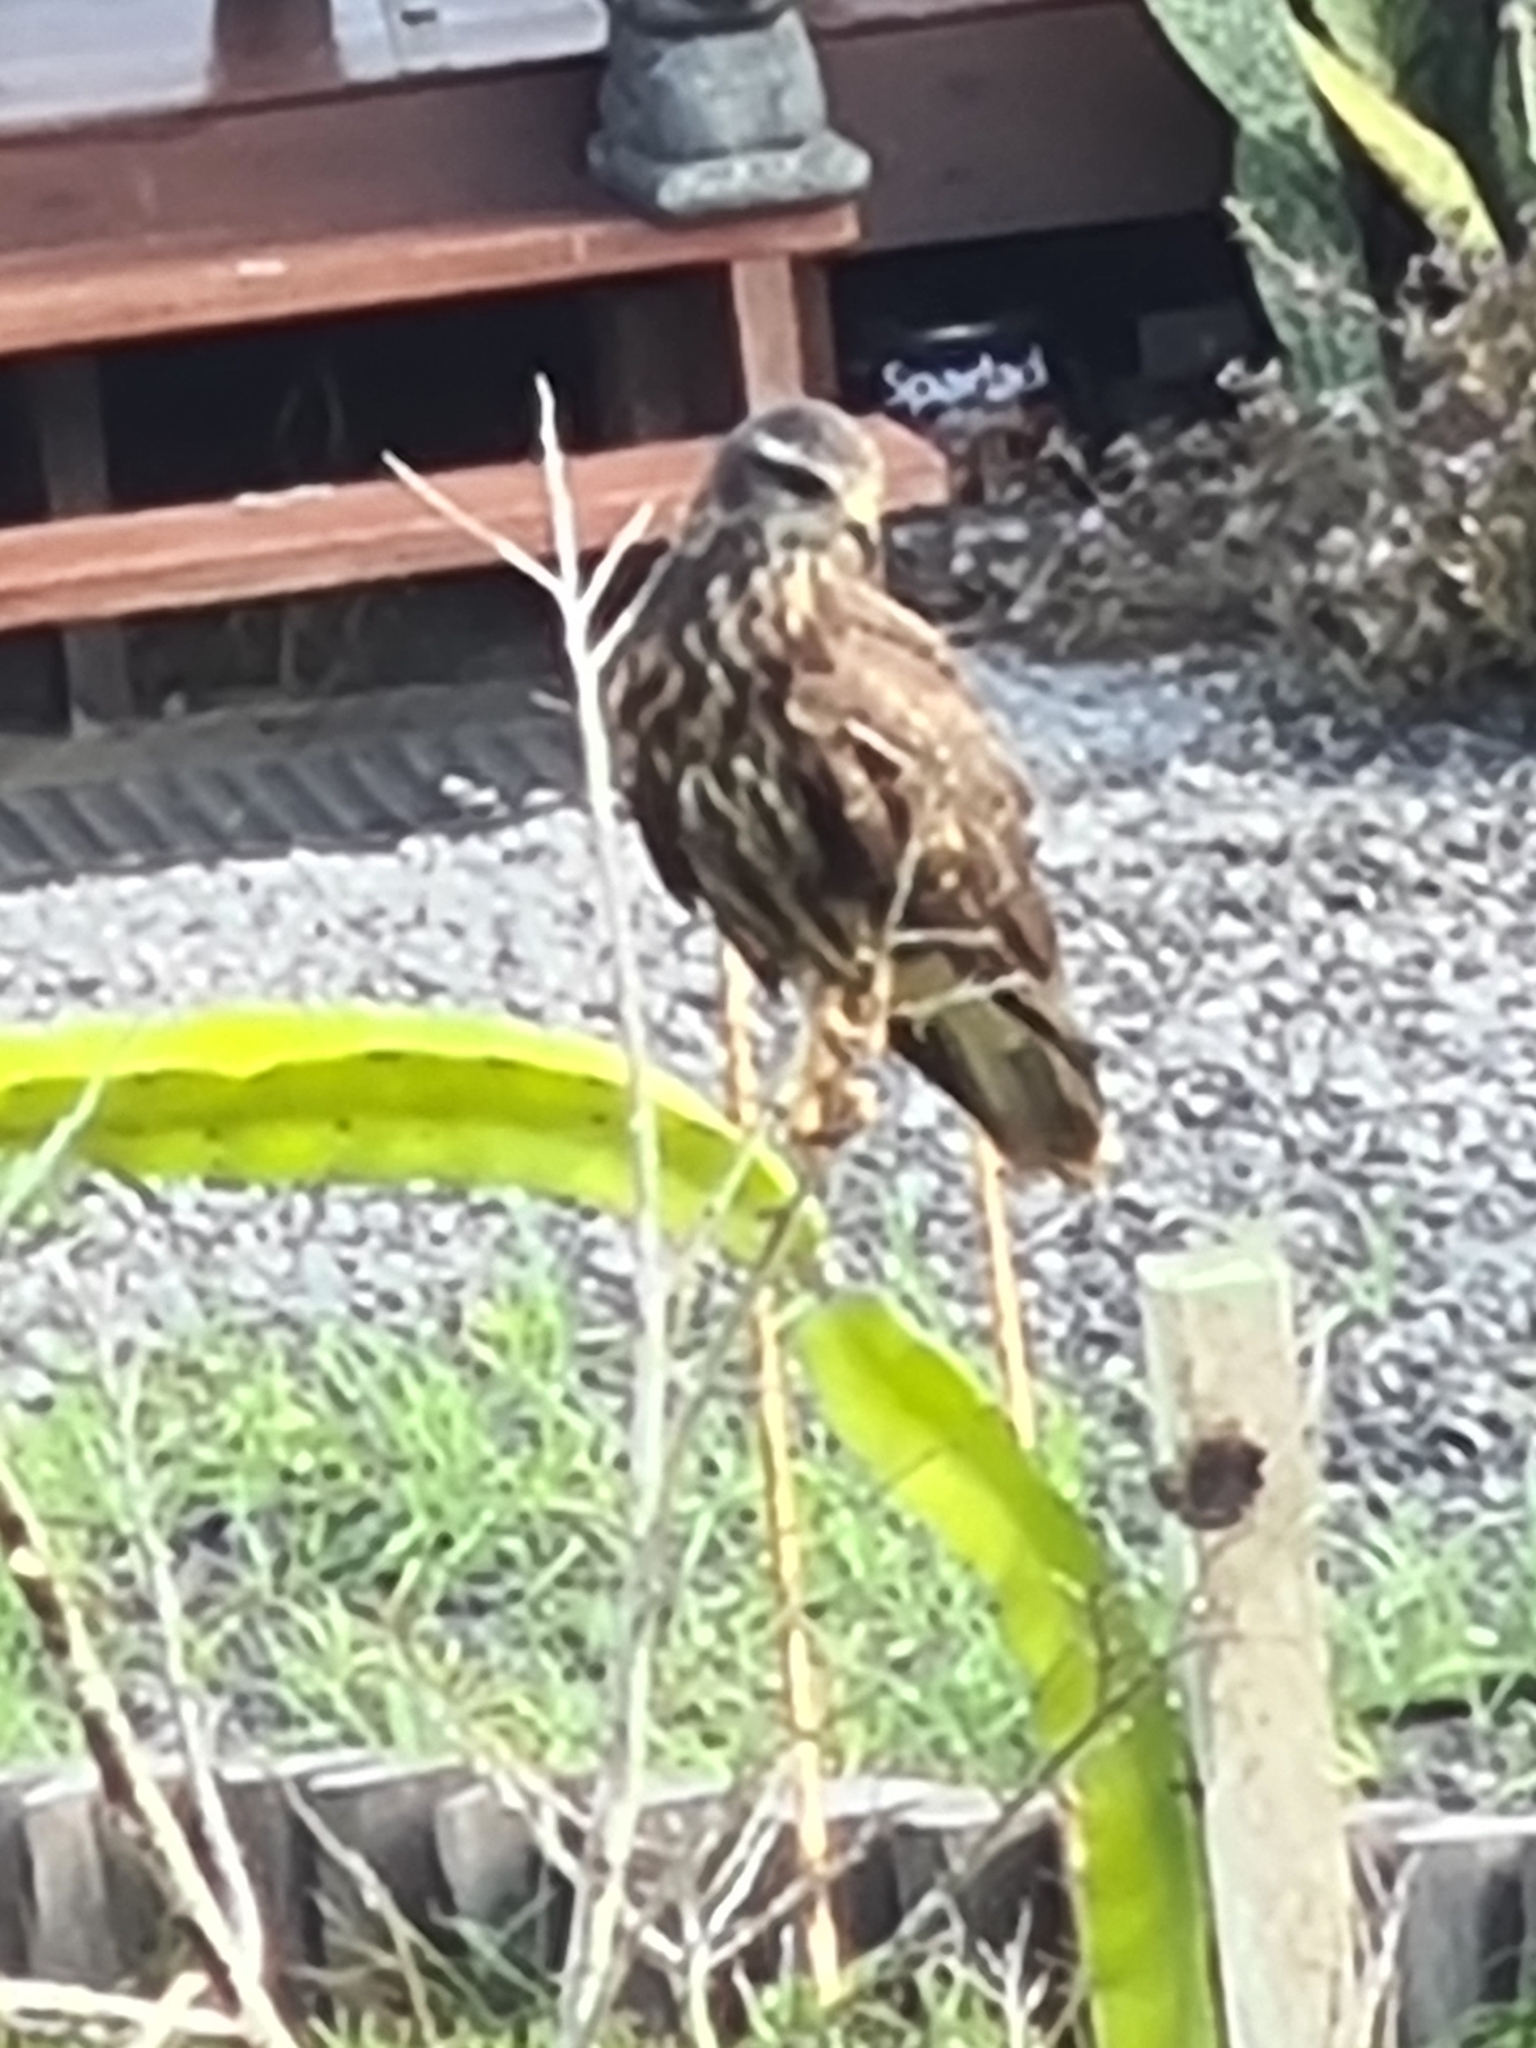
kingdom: Animalia
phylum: Chordata
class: Aves
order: Accipitriformes
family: Accipitridae
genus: Rostrhamus
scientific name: Rostrhamus sociabilis
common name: Snail kite
